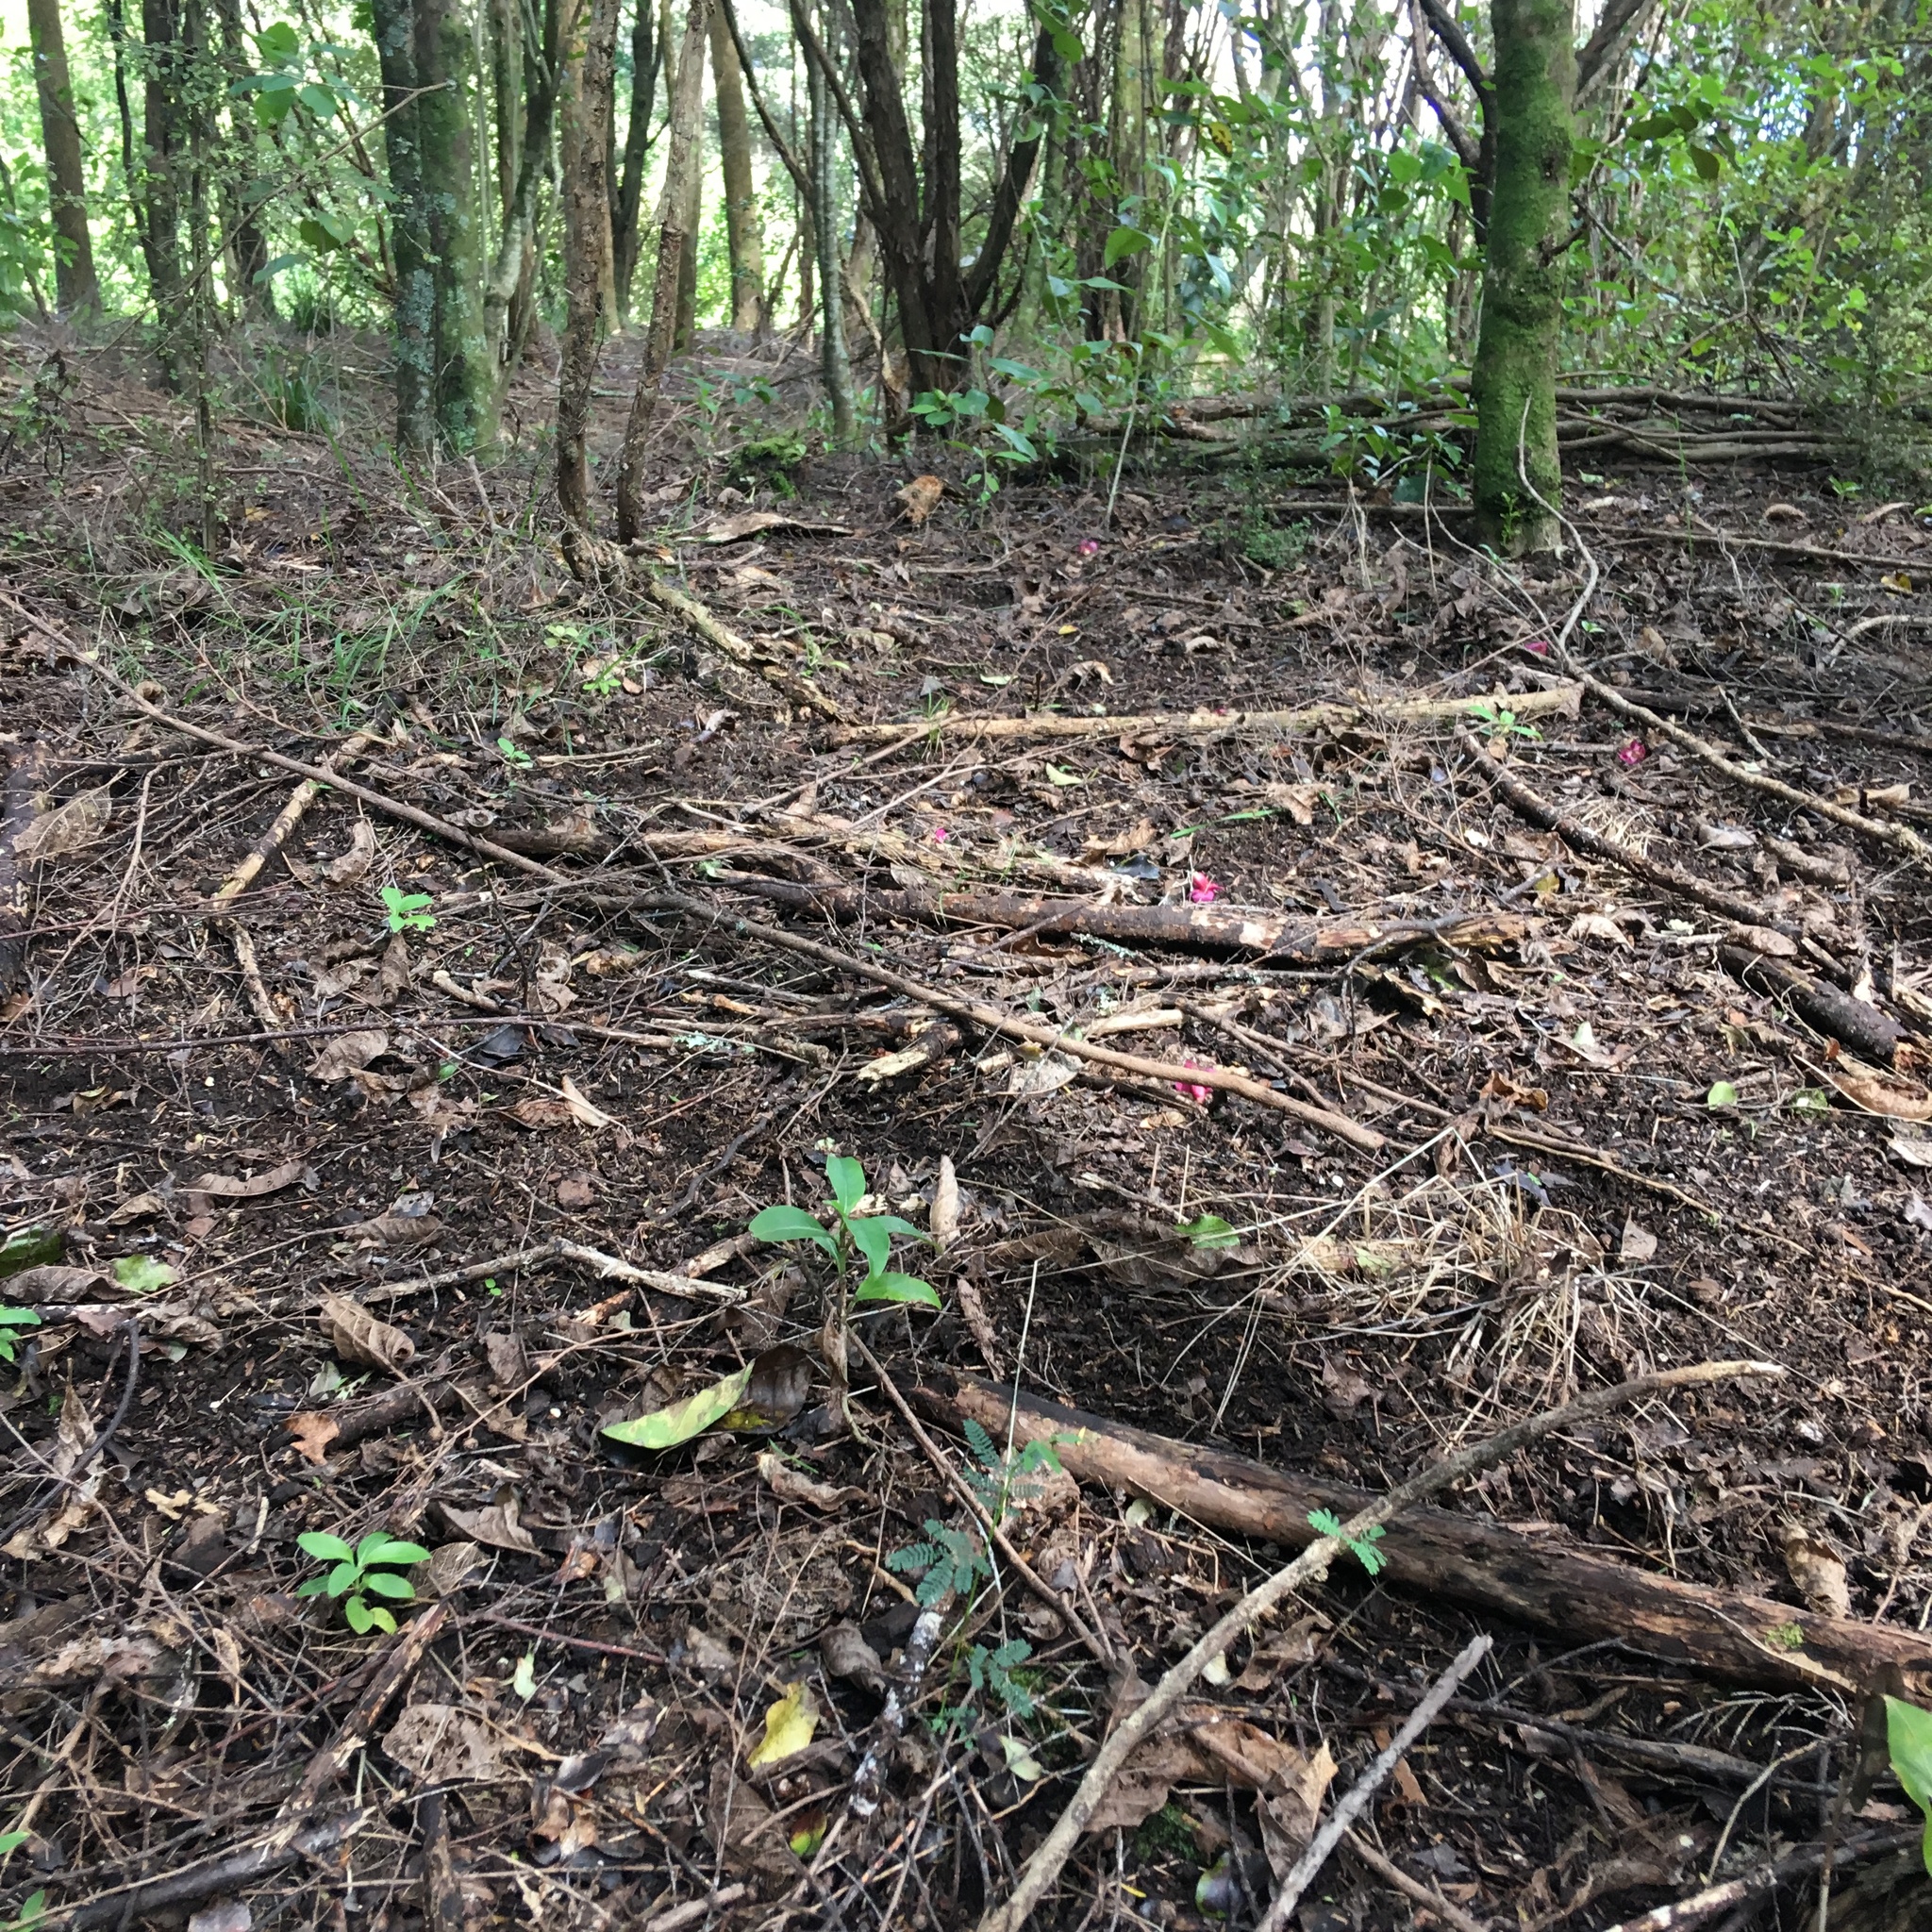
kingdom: Plantae
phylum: Tracheophyta
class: Magnoliopsida
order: Fabales
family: Fabaceae
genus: Paraserianthes
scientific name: Paraserianthes lophantha
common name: Plume albizia
